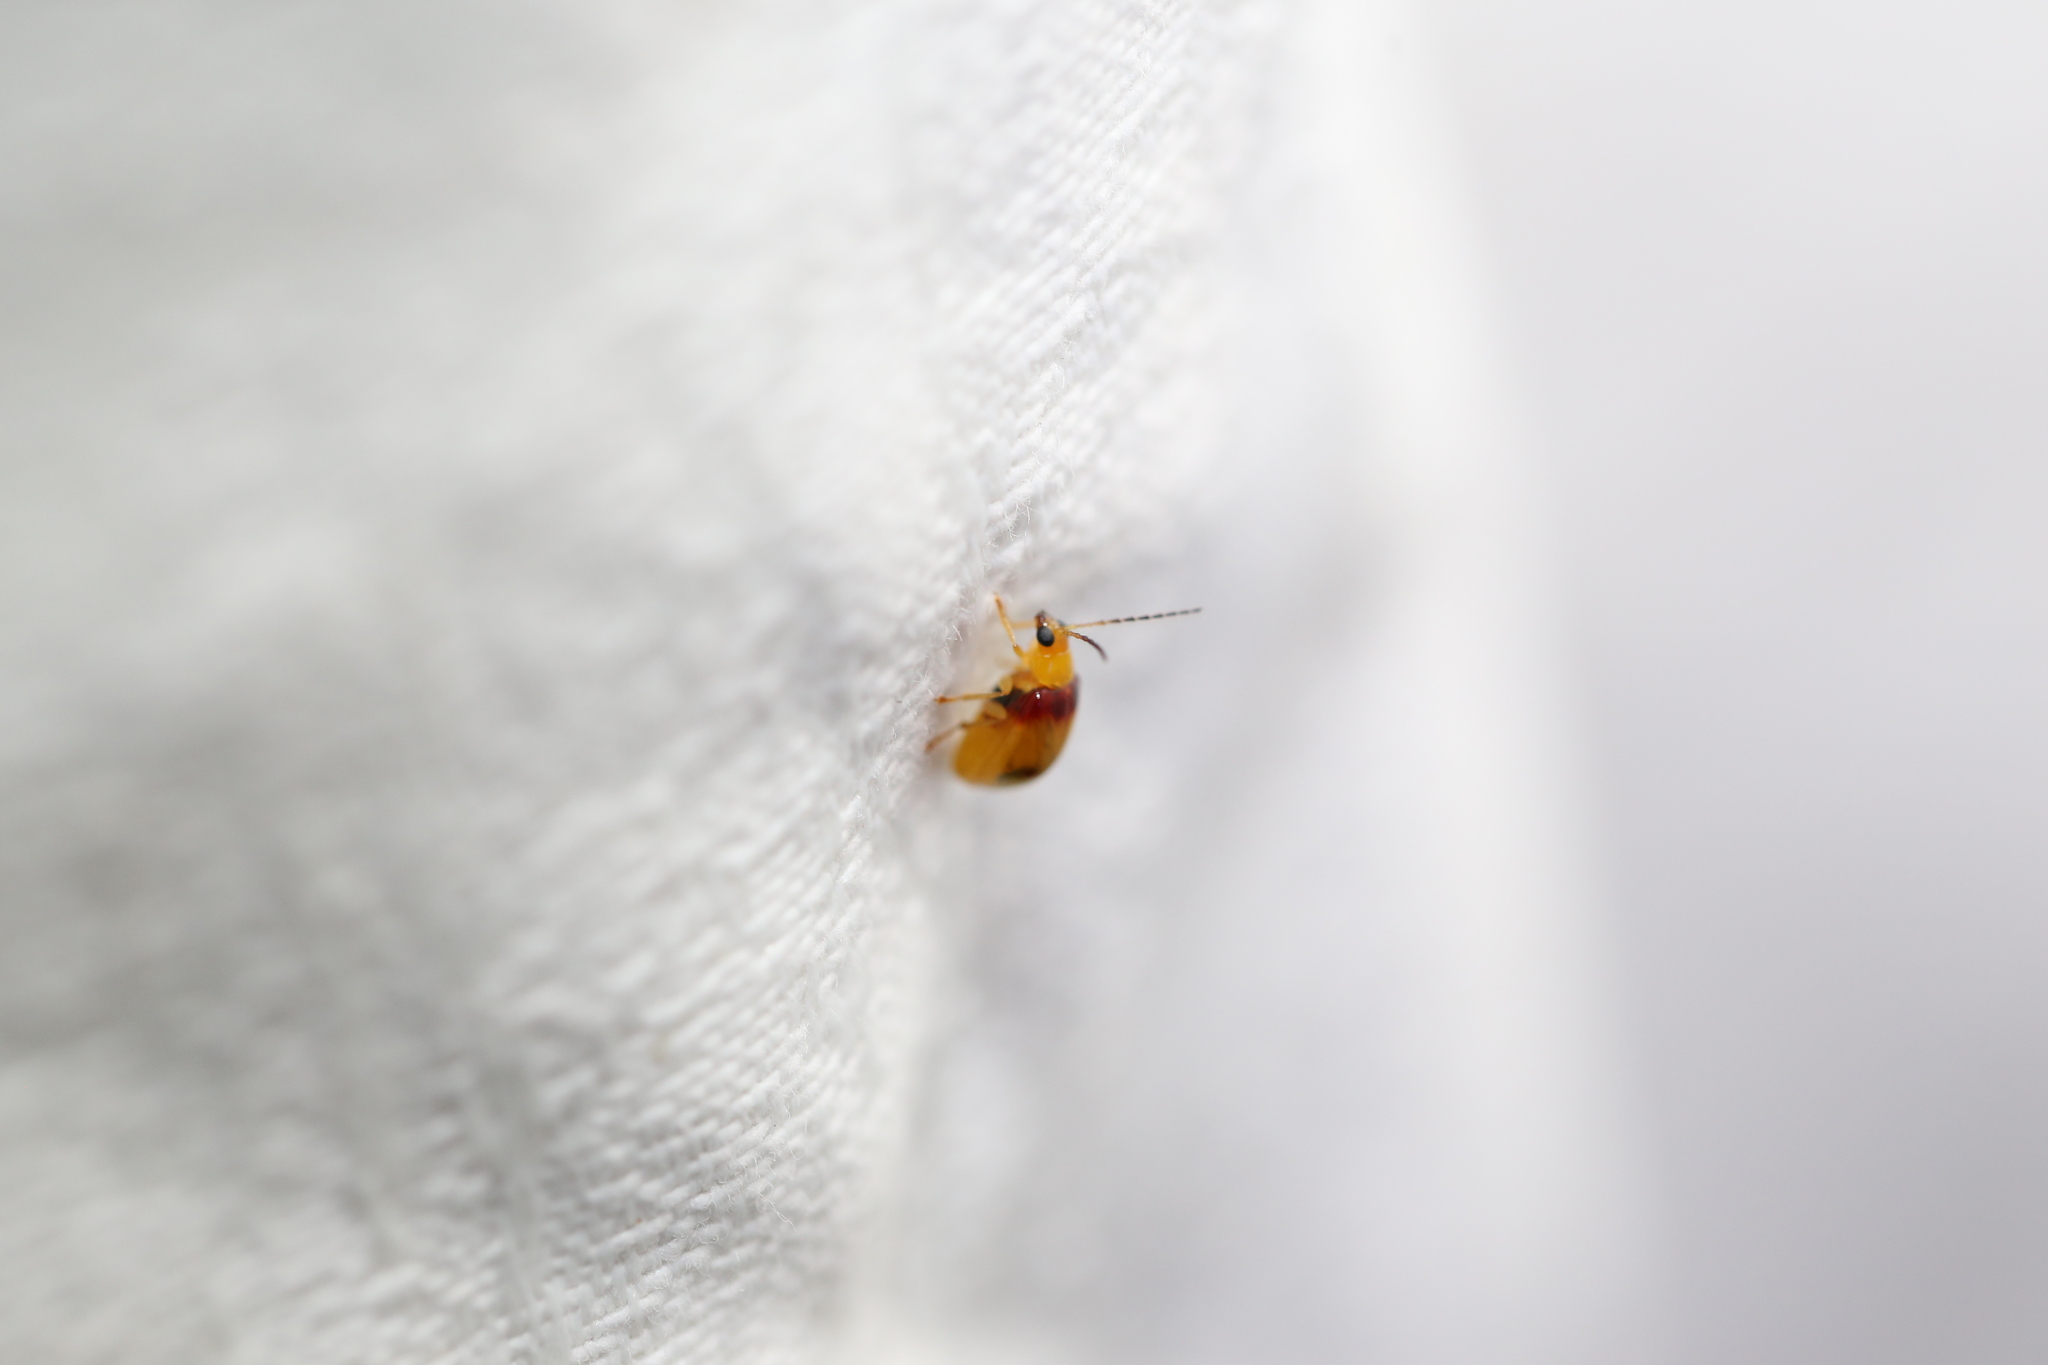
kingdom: Animalia
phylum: Arthropoda
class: Insecta
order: Coleoptera
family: Chrysomelidae
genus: Monolepta
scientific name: Monolepta
